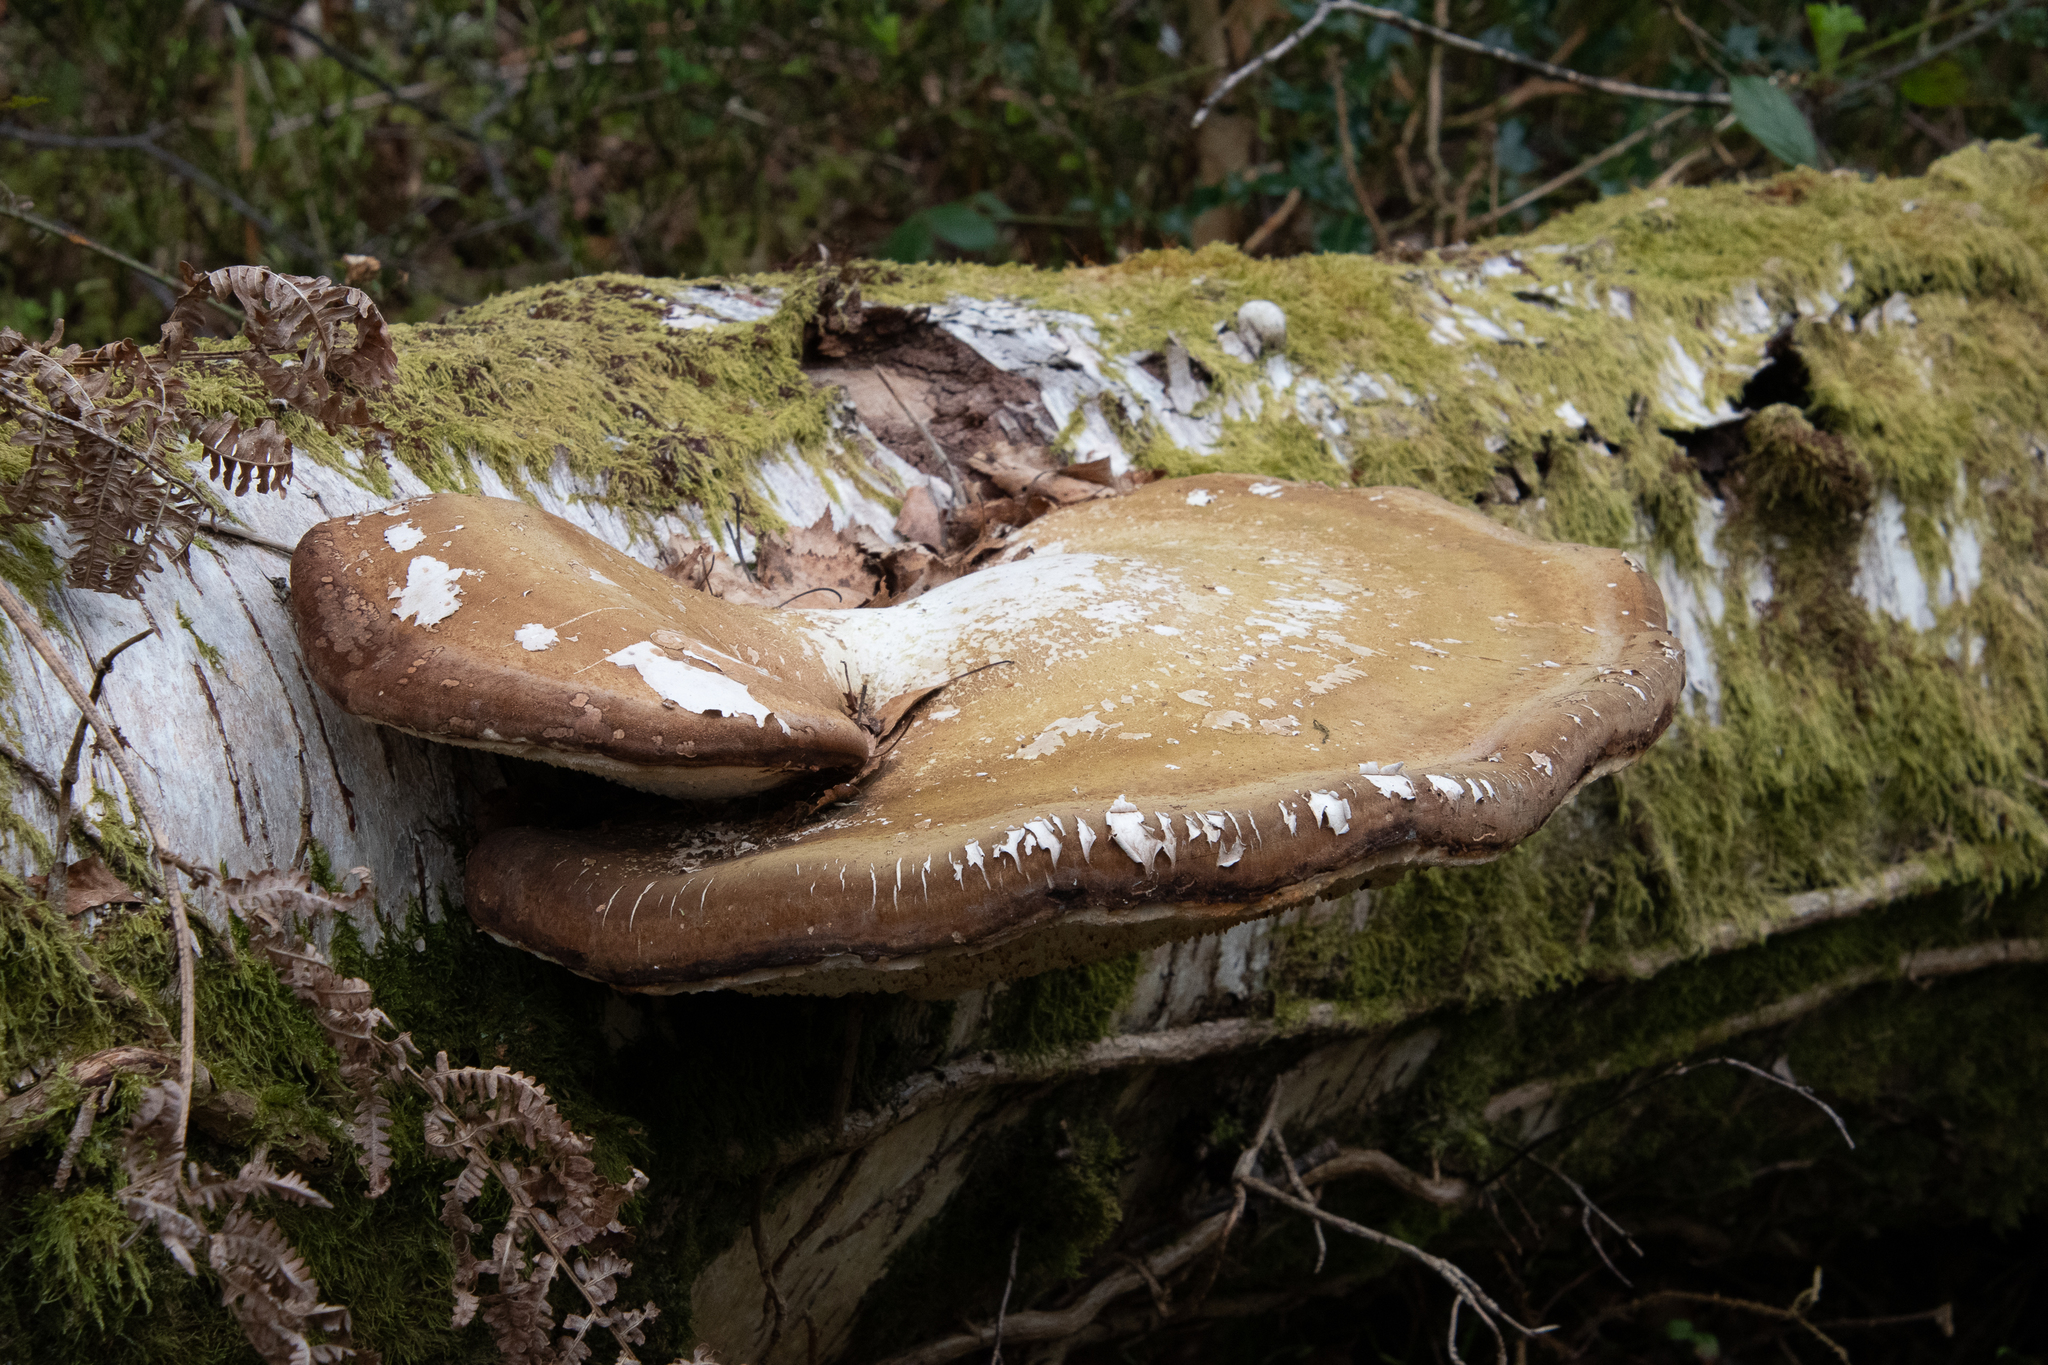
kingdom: Fungi
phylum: Basidiomycota
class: Agaricomycetes
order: Polyporales
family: Fomitopsidaceae
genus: Fomitopsis
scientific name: Fomitopsis betulina
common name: Birch polypore
